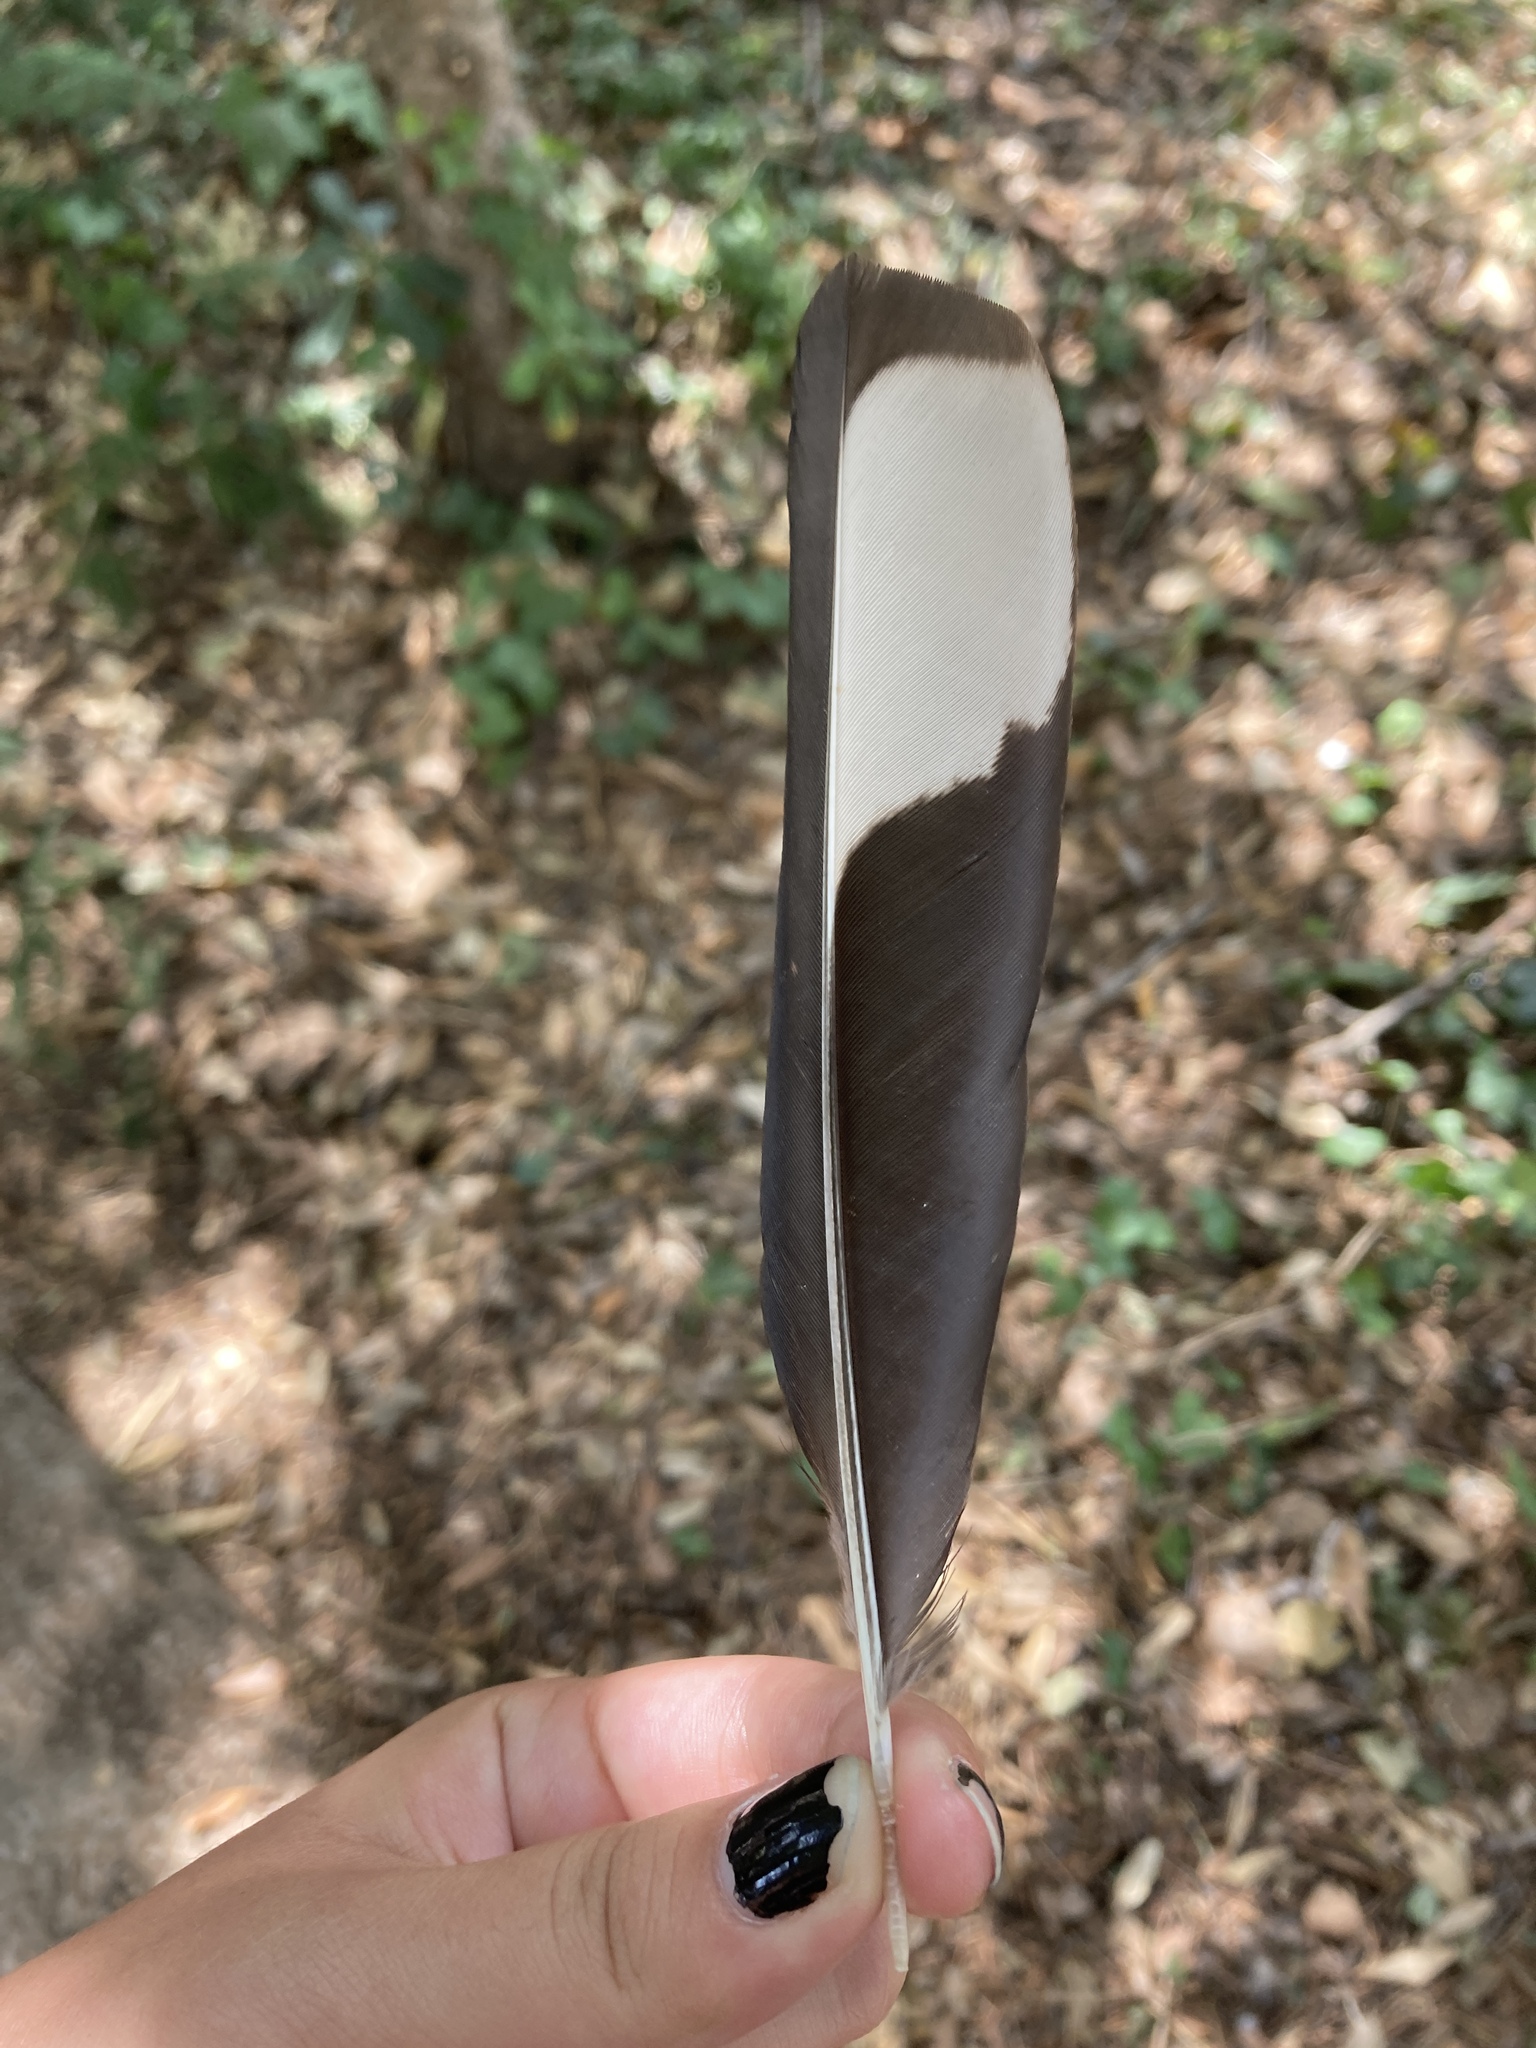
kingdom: Animalia
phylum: Chordata
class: Aves
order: Passeriformes
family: Corvidae
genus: Pica
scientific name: Pica pica
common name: Eurasian magpie
